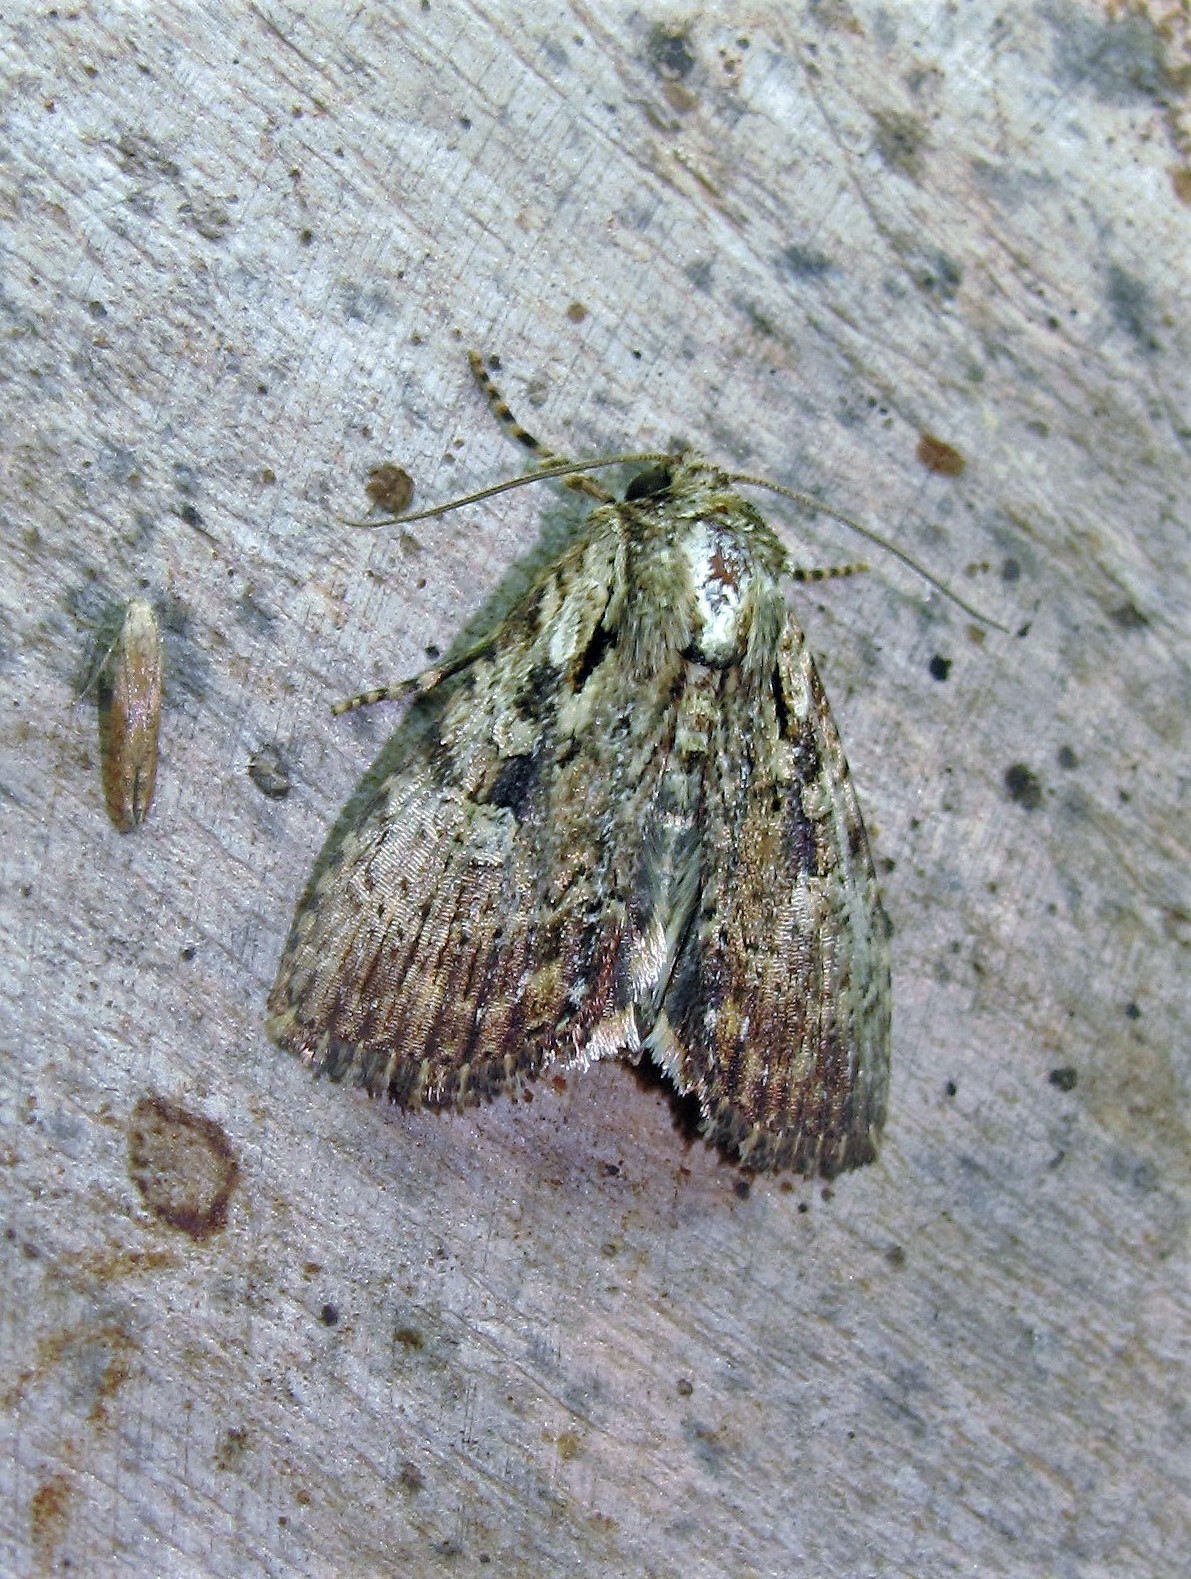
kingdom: Animalia
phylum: Arthropoda
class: Insecta
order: Lepidoptera
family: Noctuidae
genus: Perigea
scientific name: Perigea berinda
